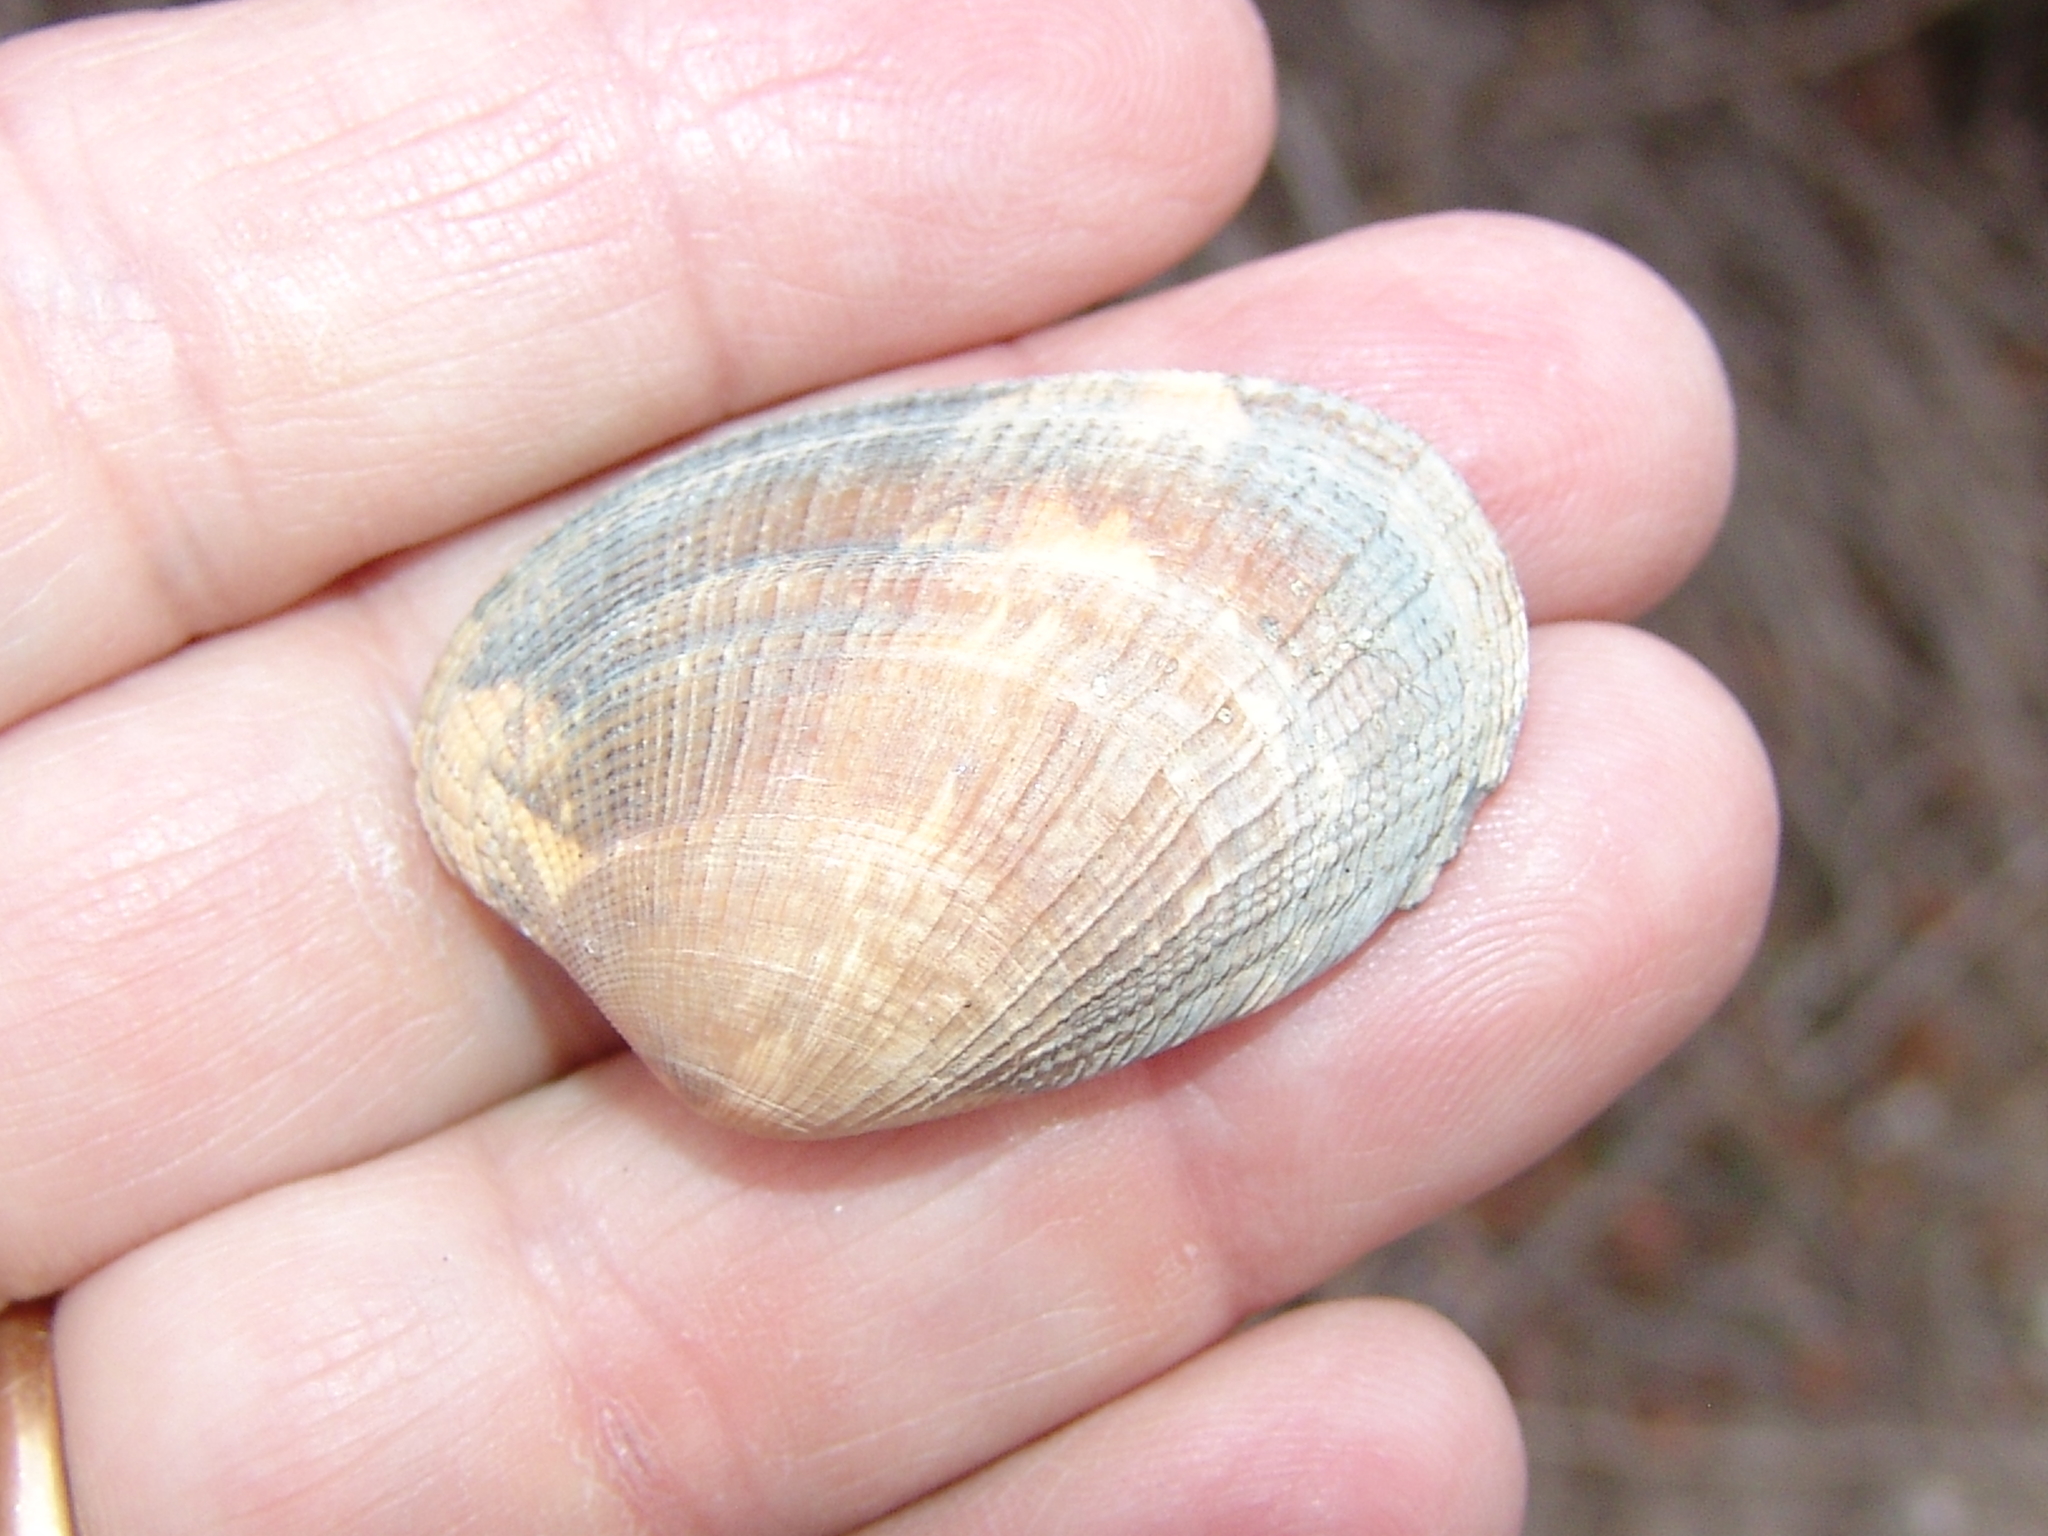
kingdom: Animalia
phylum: Mollusca
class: Bivalvia
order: Venerida
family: Veneridae
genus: Ruditapes
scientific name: Ruditapes philippinarum
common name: Manila clam
